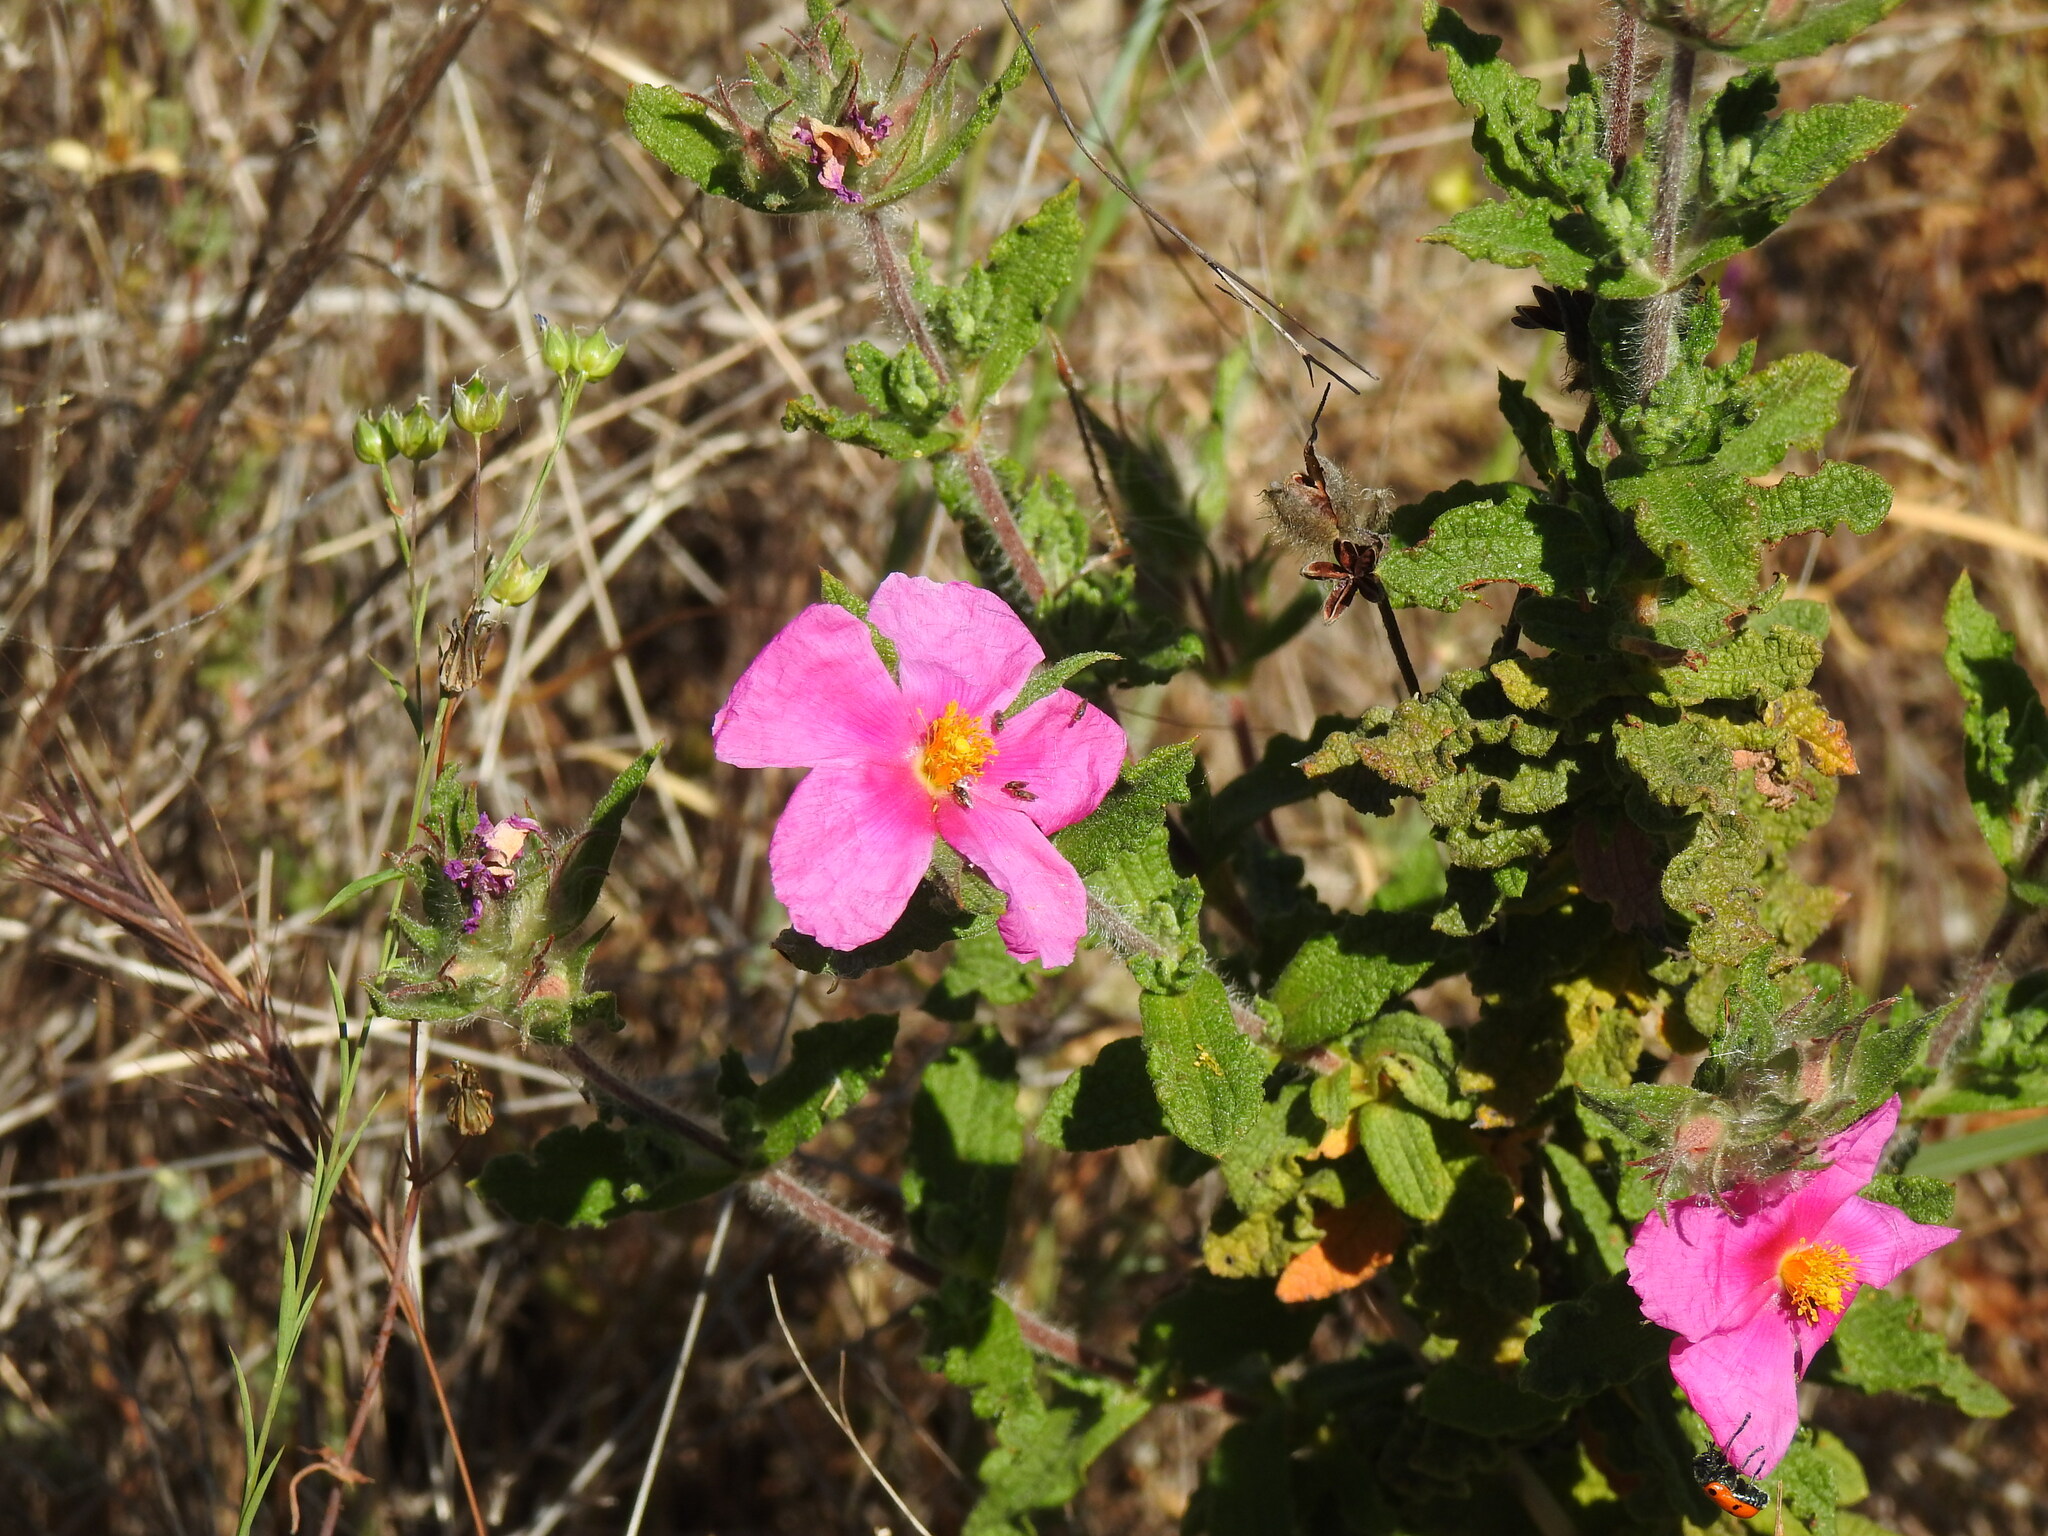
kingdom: Plantae
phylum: Tracheophyta
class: Magnoliopsida
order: Malvales
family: Cistaceae
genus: Cistus
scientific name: Cistus crispus
